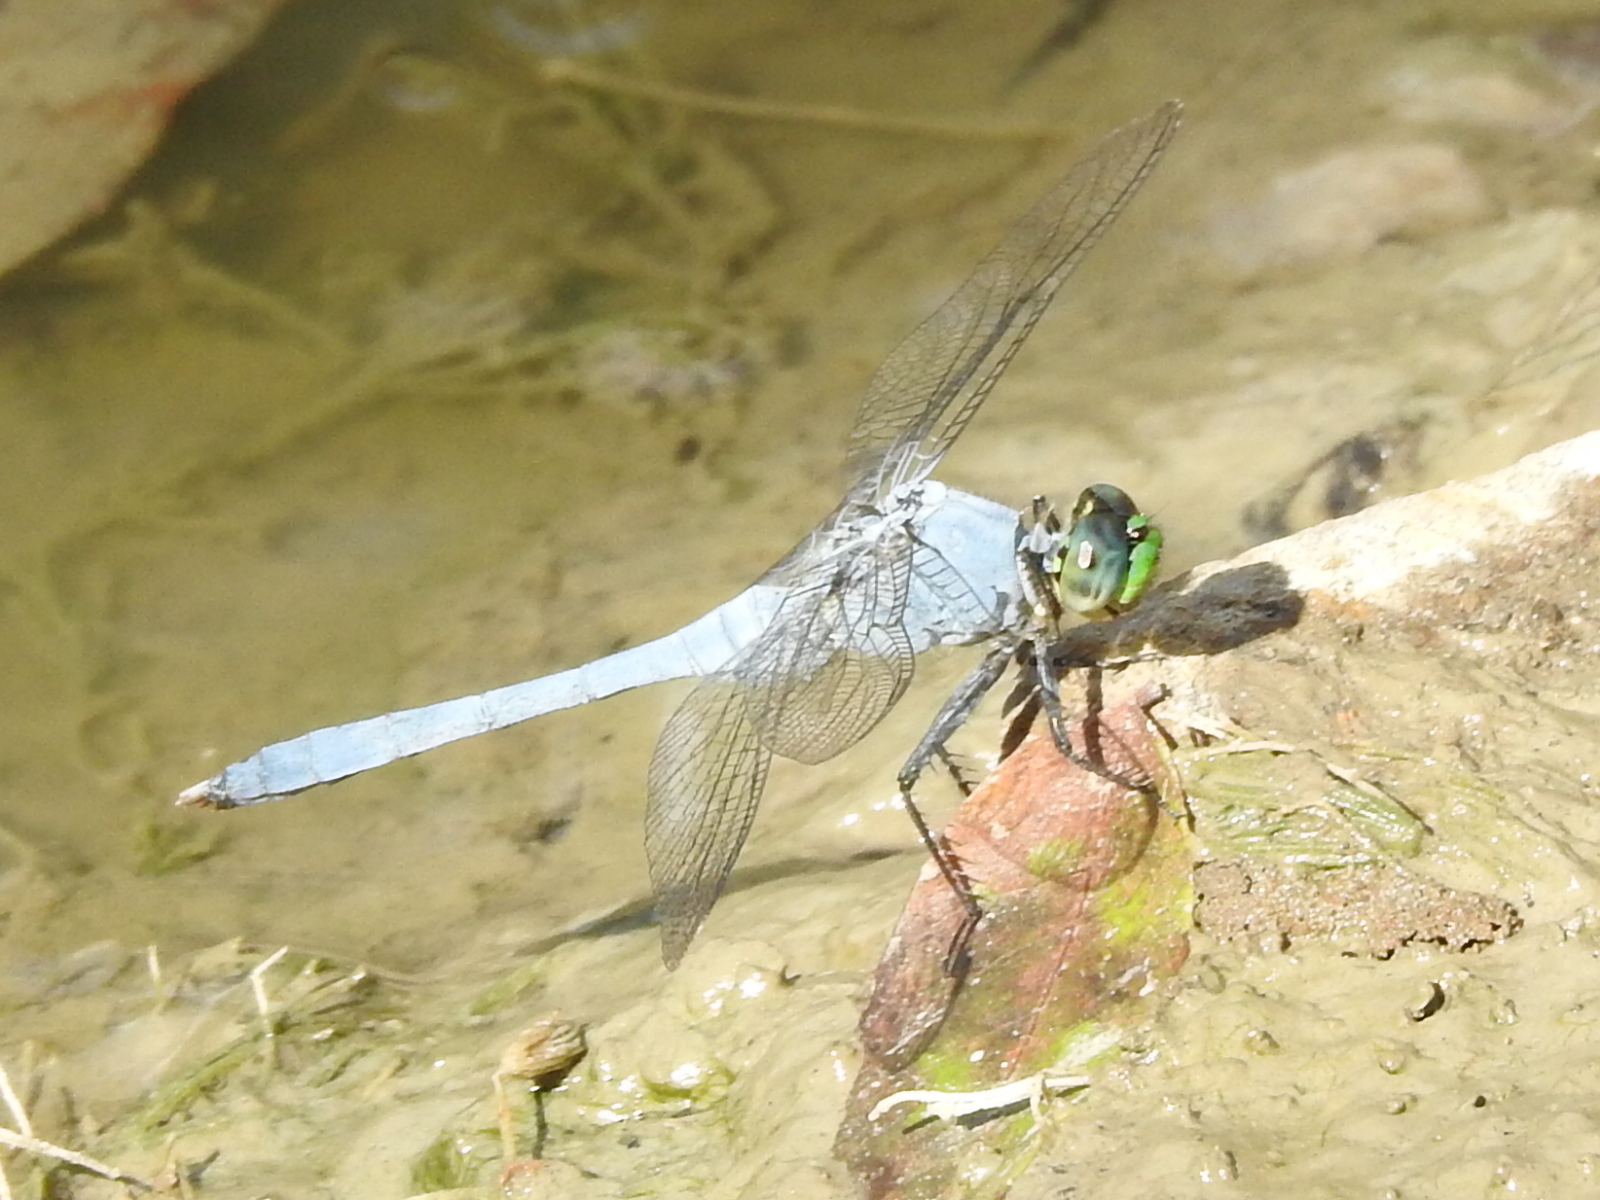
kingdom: Animalia
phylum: Arthropoda
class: Insecta
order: Odonata
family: Libellulidae
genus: Erythemis
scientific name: Erythemis simplicicollis
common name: Eastern pondhawk
